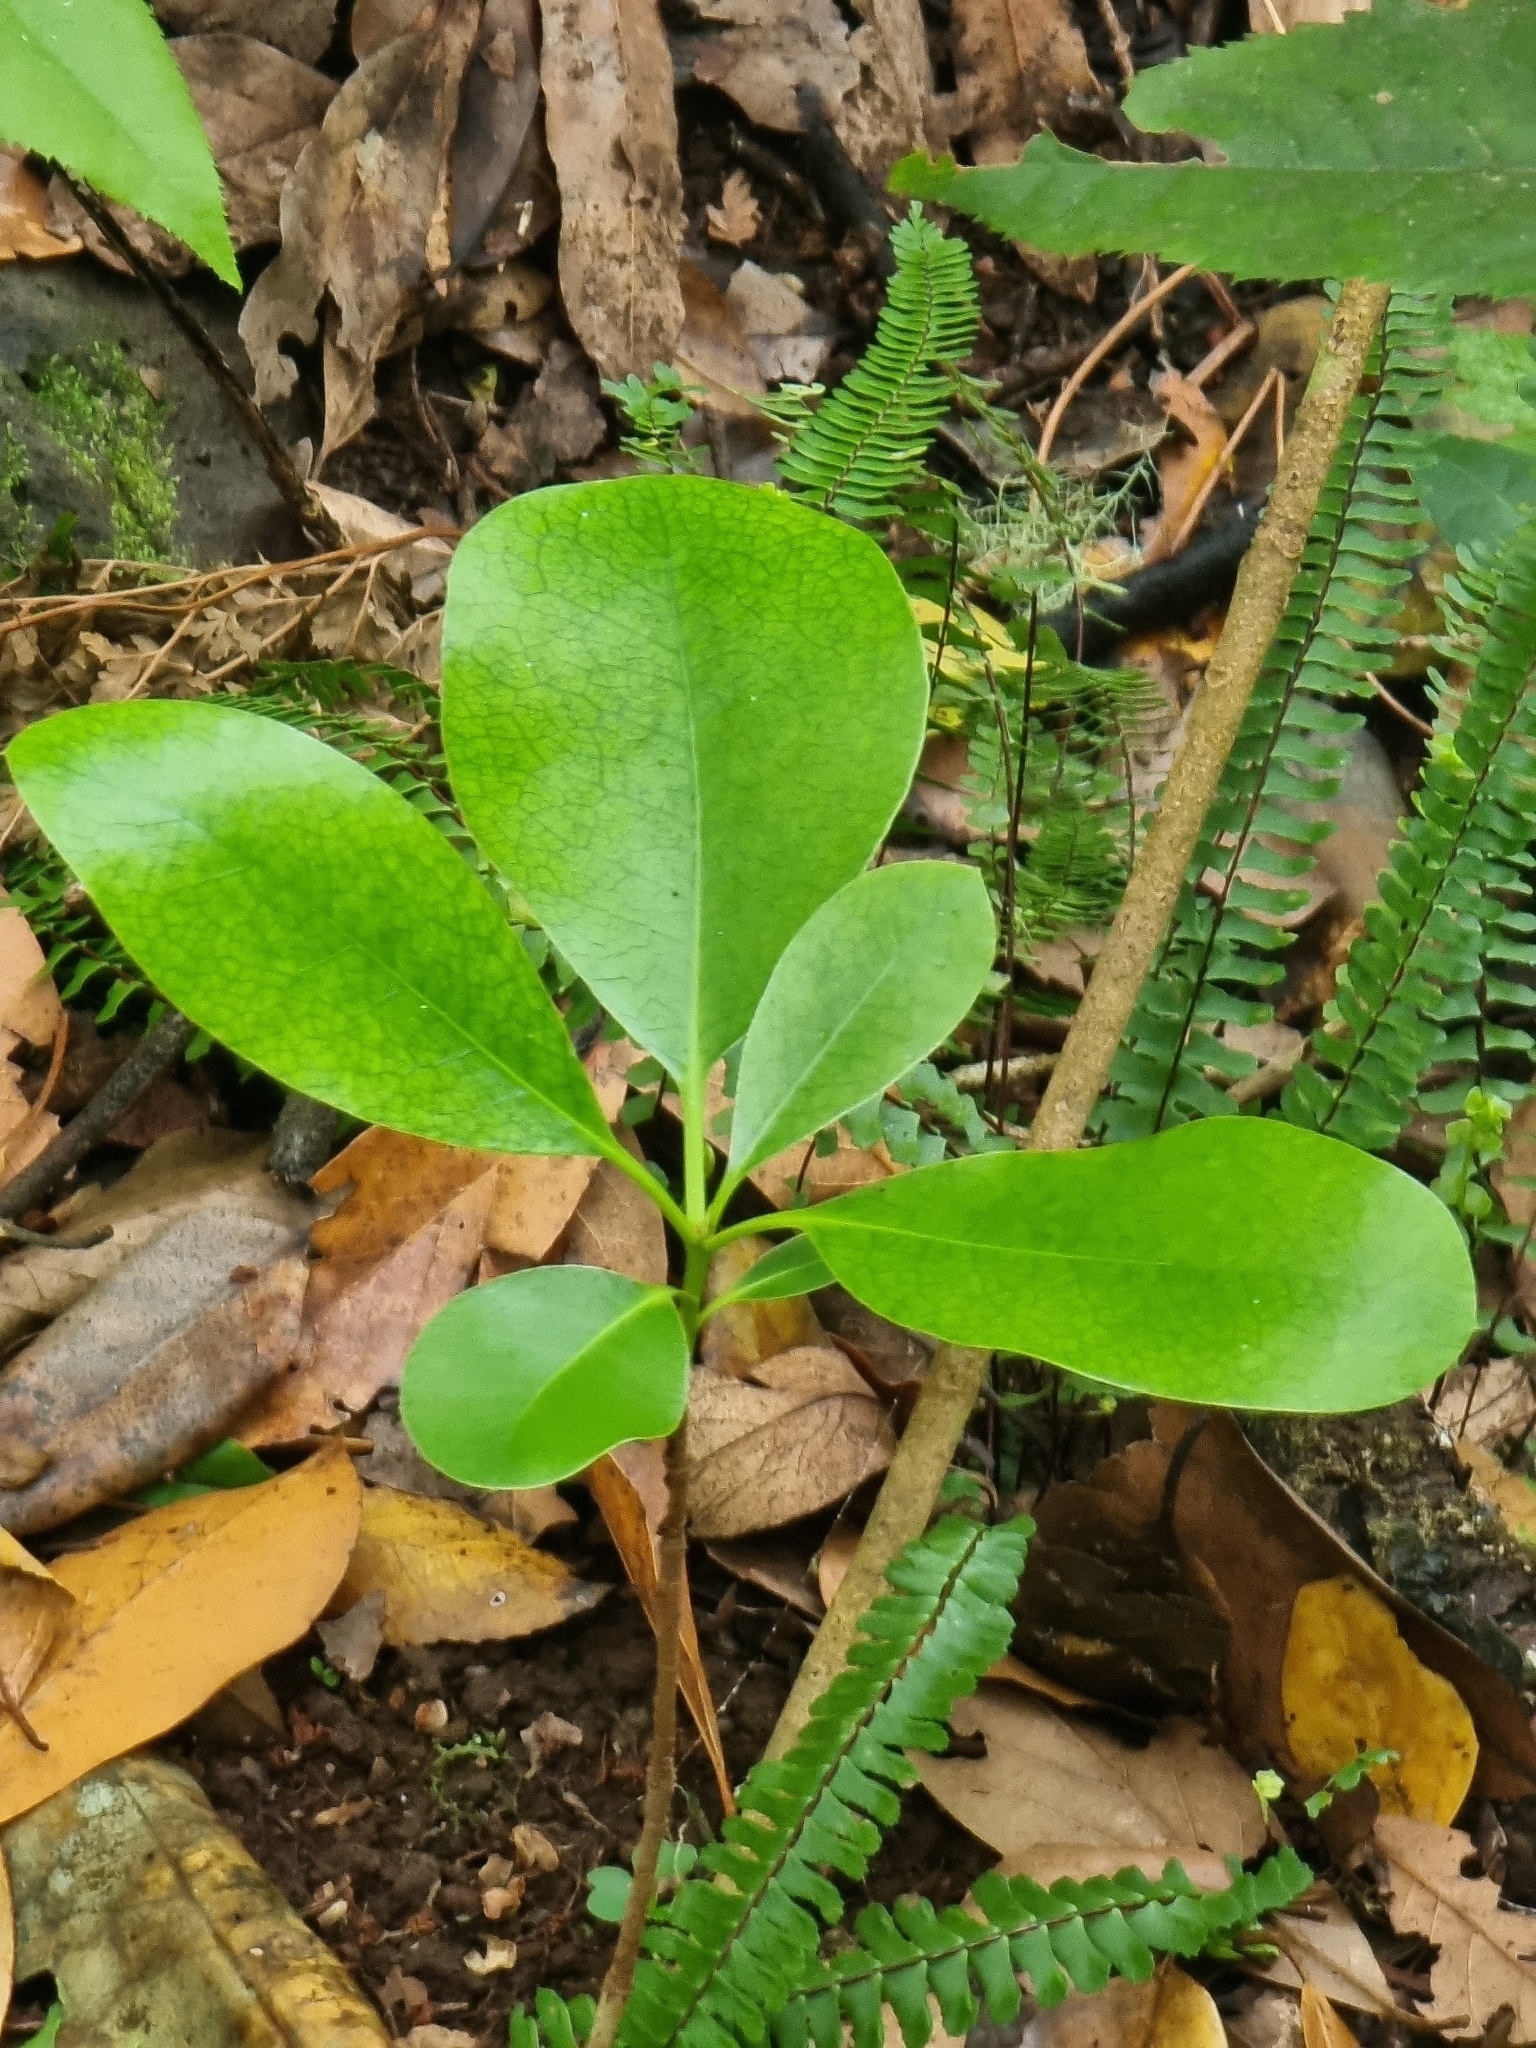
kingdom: Plantae
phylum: Tracheophyta
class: Magnoliopsida
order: Apiales
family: Pittosporaceae
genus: Pittosporum
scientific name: Pittosporum coriaceum
